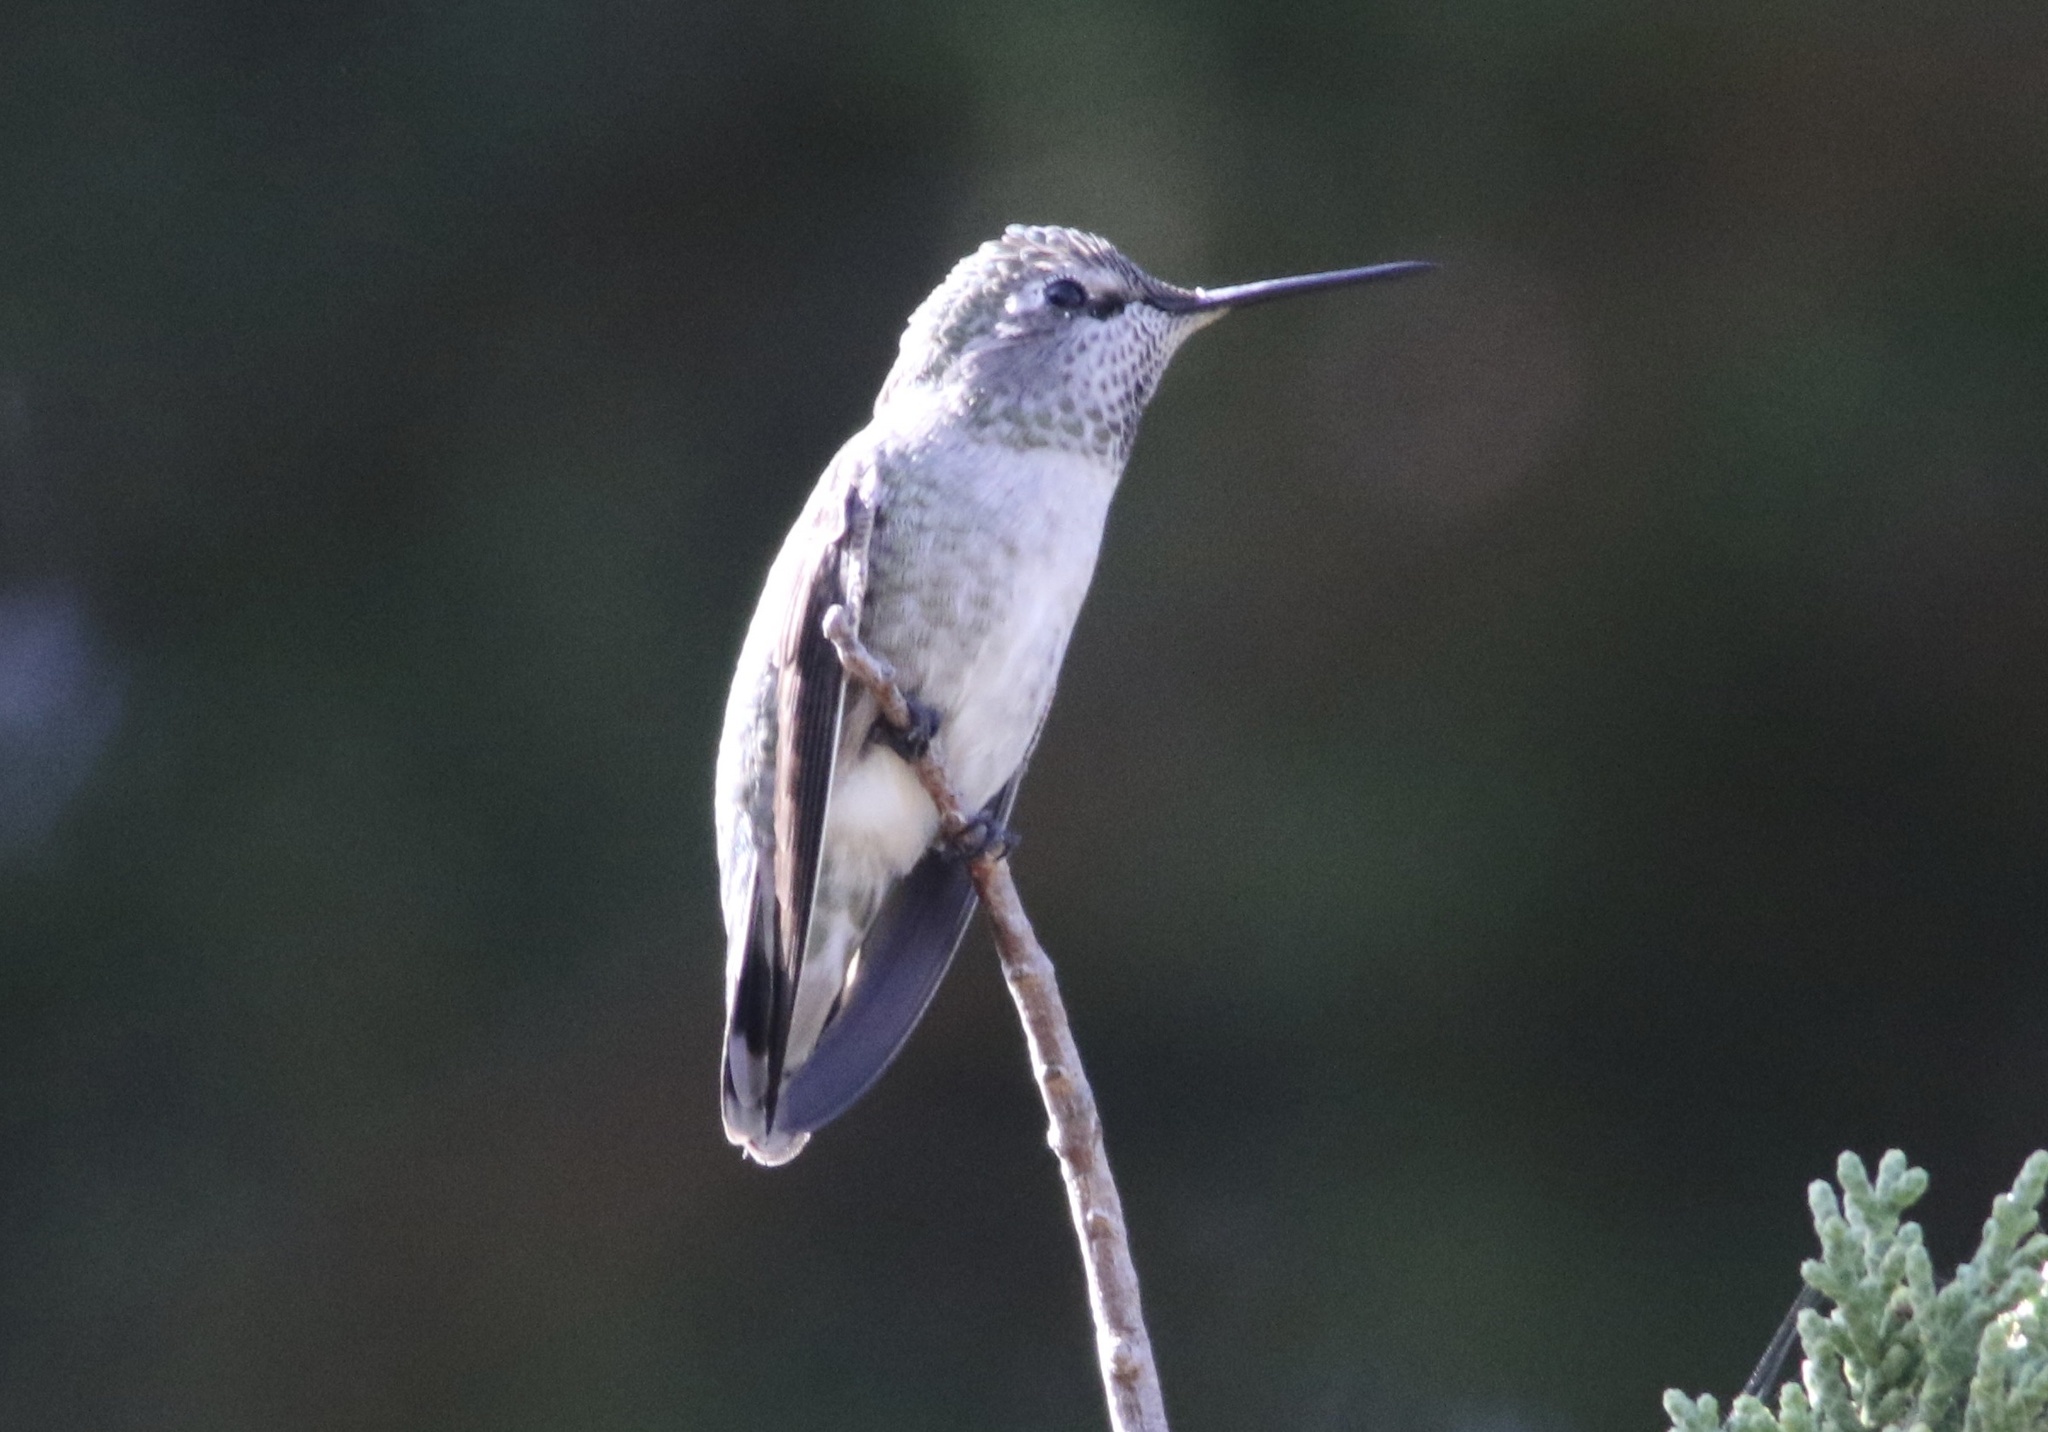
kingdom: Animalia
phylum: Chordata
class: Aves
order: Apodiformes
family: Trochilidae
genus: Calypte
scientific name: Calypte anna
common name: Anna's hummingbird
